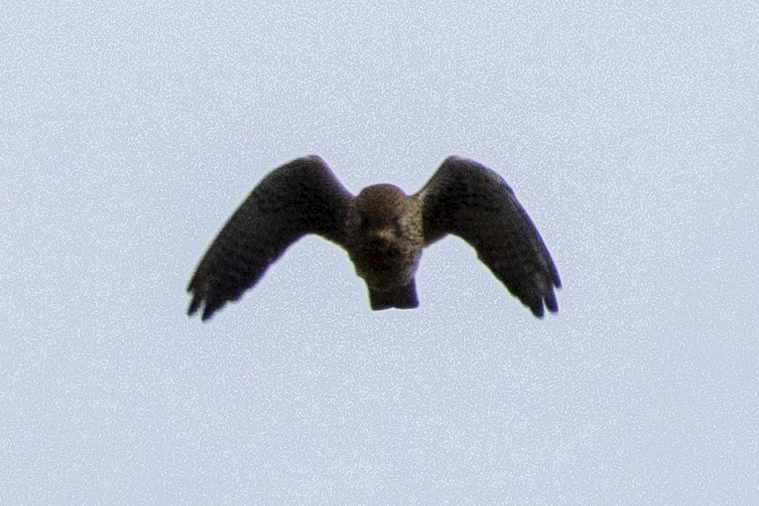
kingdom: Animalia
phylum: Chordata
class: Aves
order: Falconiformes
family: Falconidae
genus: Falco
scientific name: Falco tinnunculus
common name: Common kestrel
